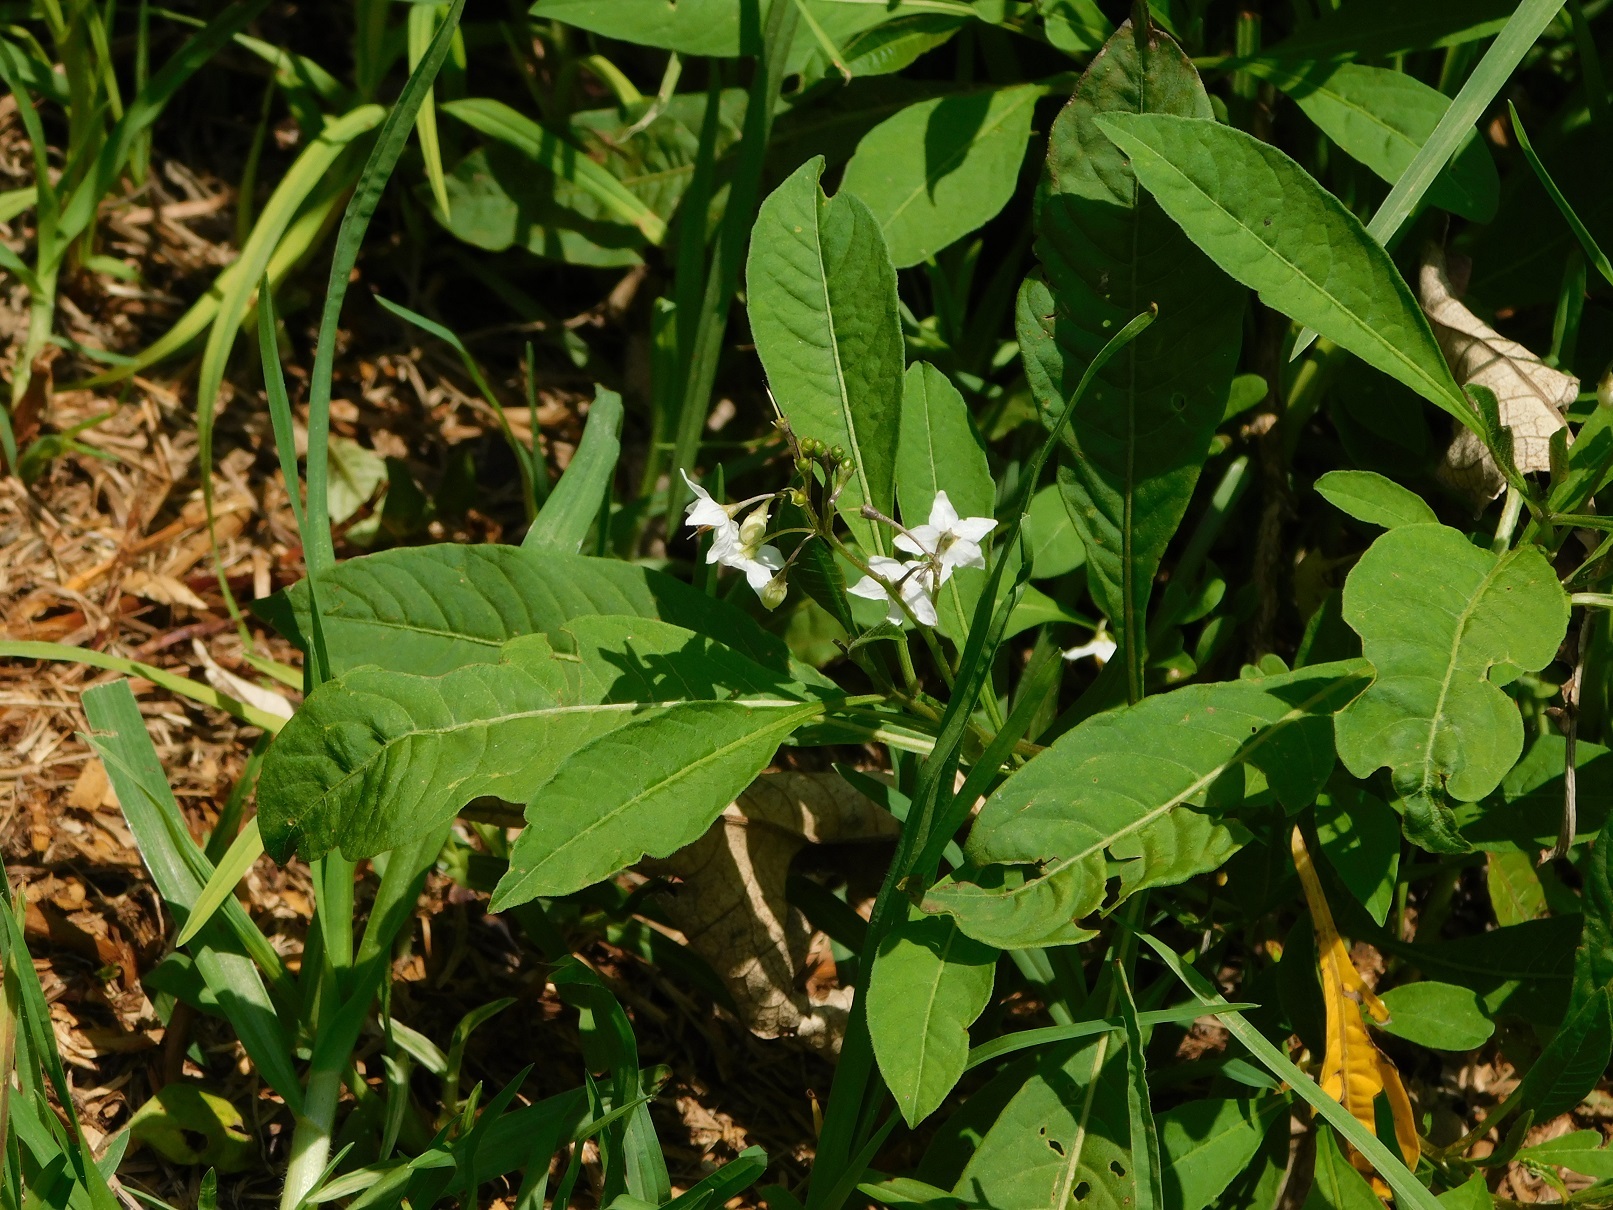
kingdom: Plantae
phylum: Tracheophyta
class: Magnoliopsida
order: Solanales
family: Solanaceae
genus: Solanum
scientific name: Solanum pubigerum
